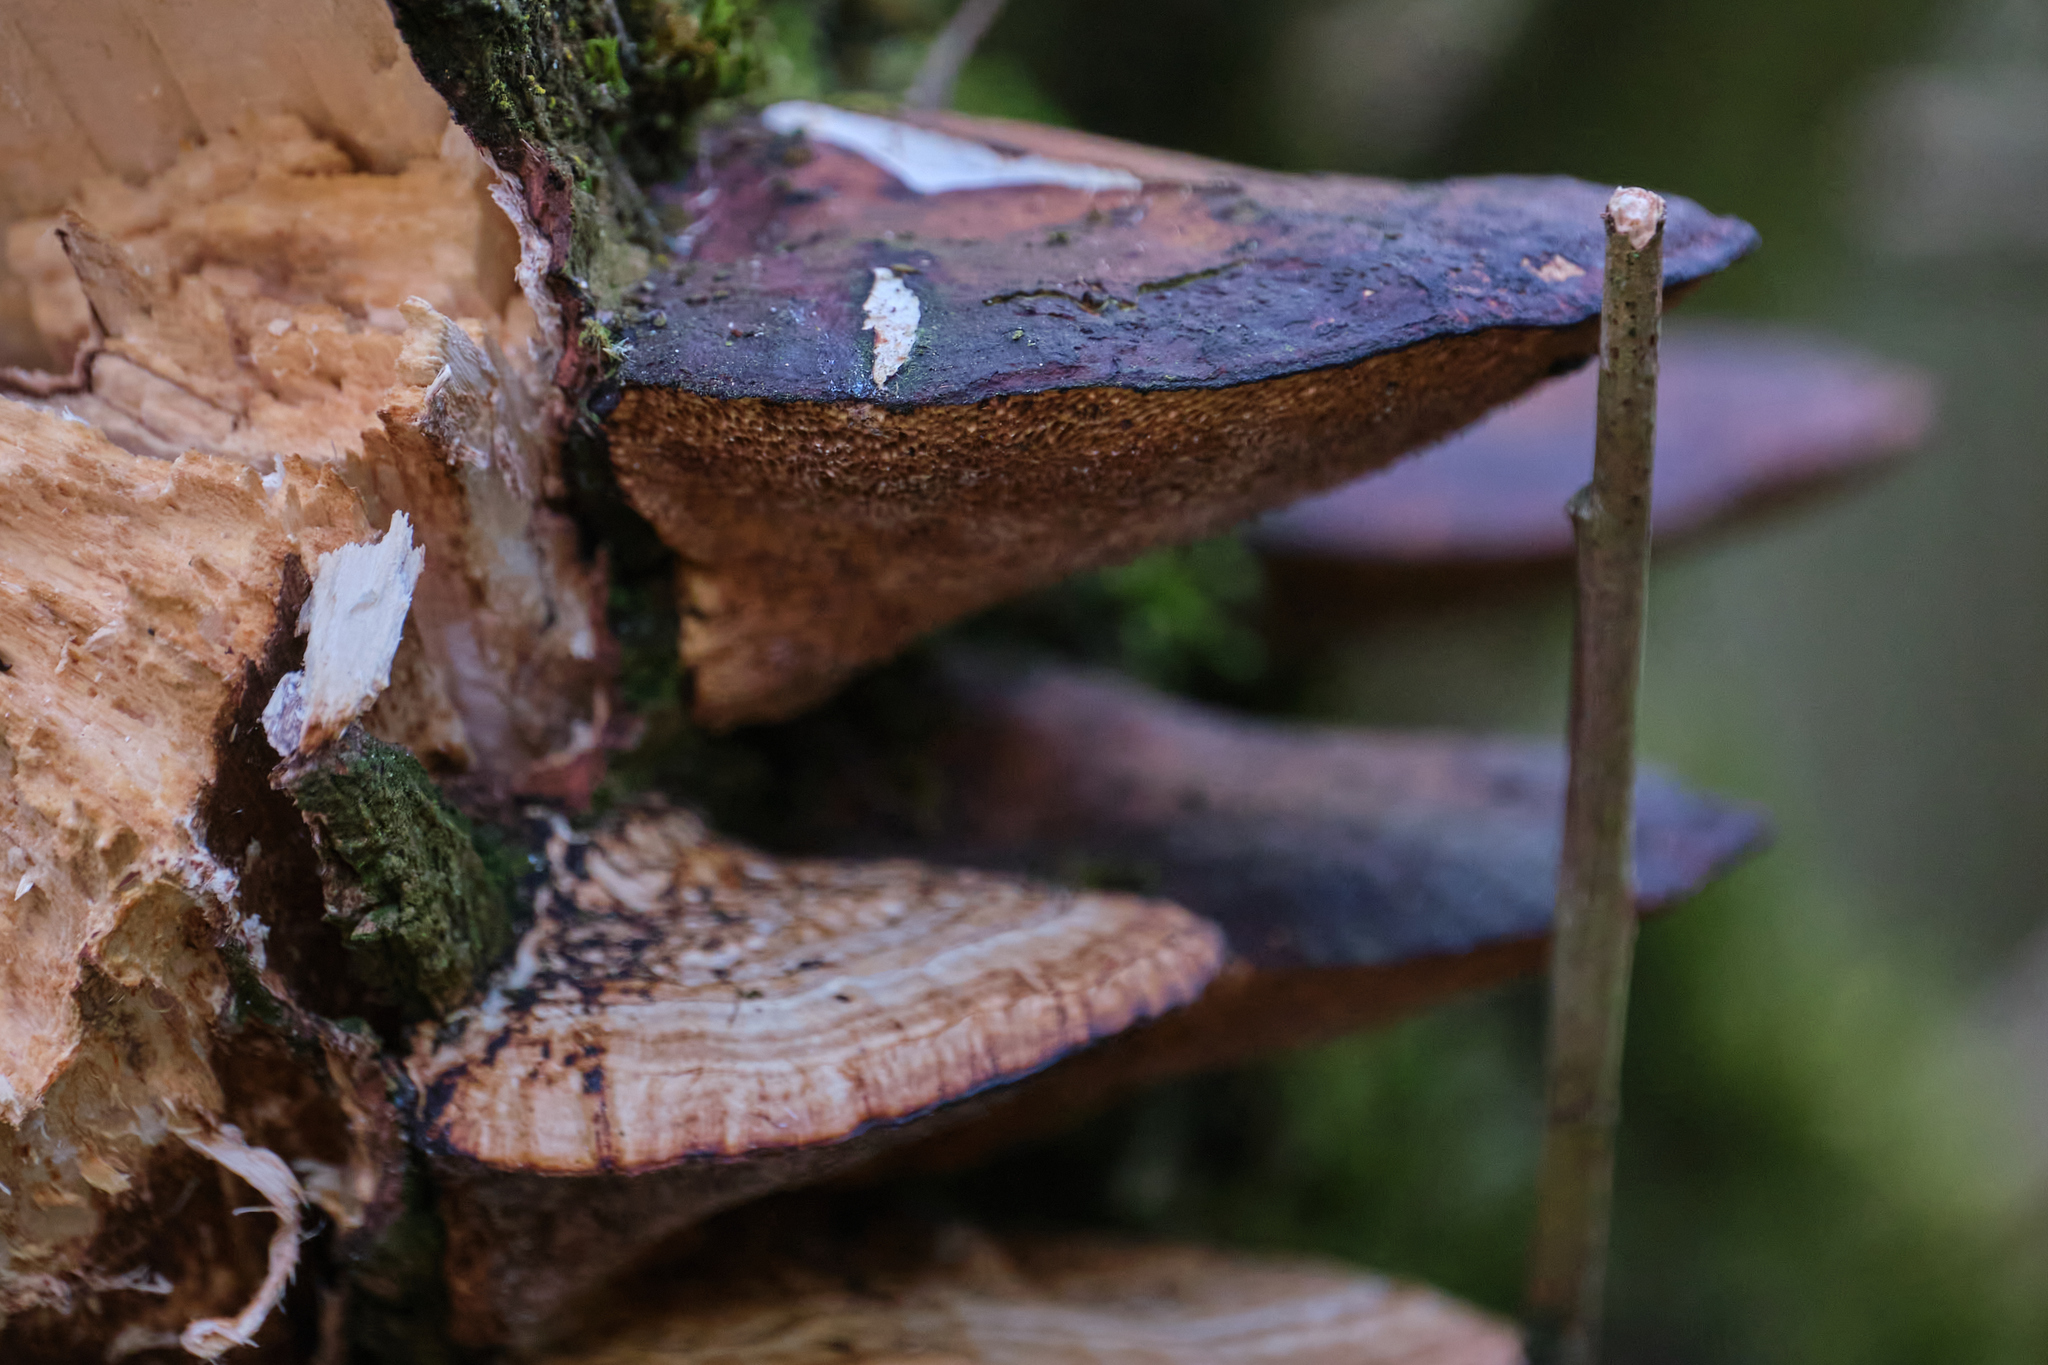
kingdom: Fungi
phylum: Basidiomycota
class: Agaricomycetes
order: Polyporales
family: Polyporaceae
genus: Daedaleopsis
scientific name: Daedaleopsis confragosa
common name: Blushing bracket
